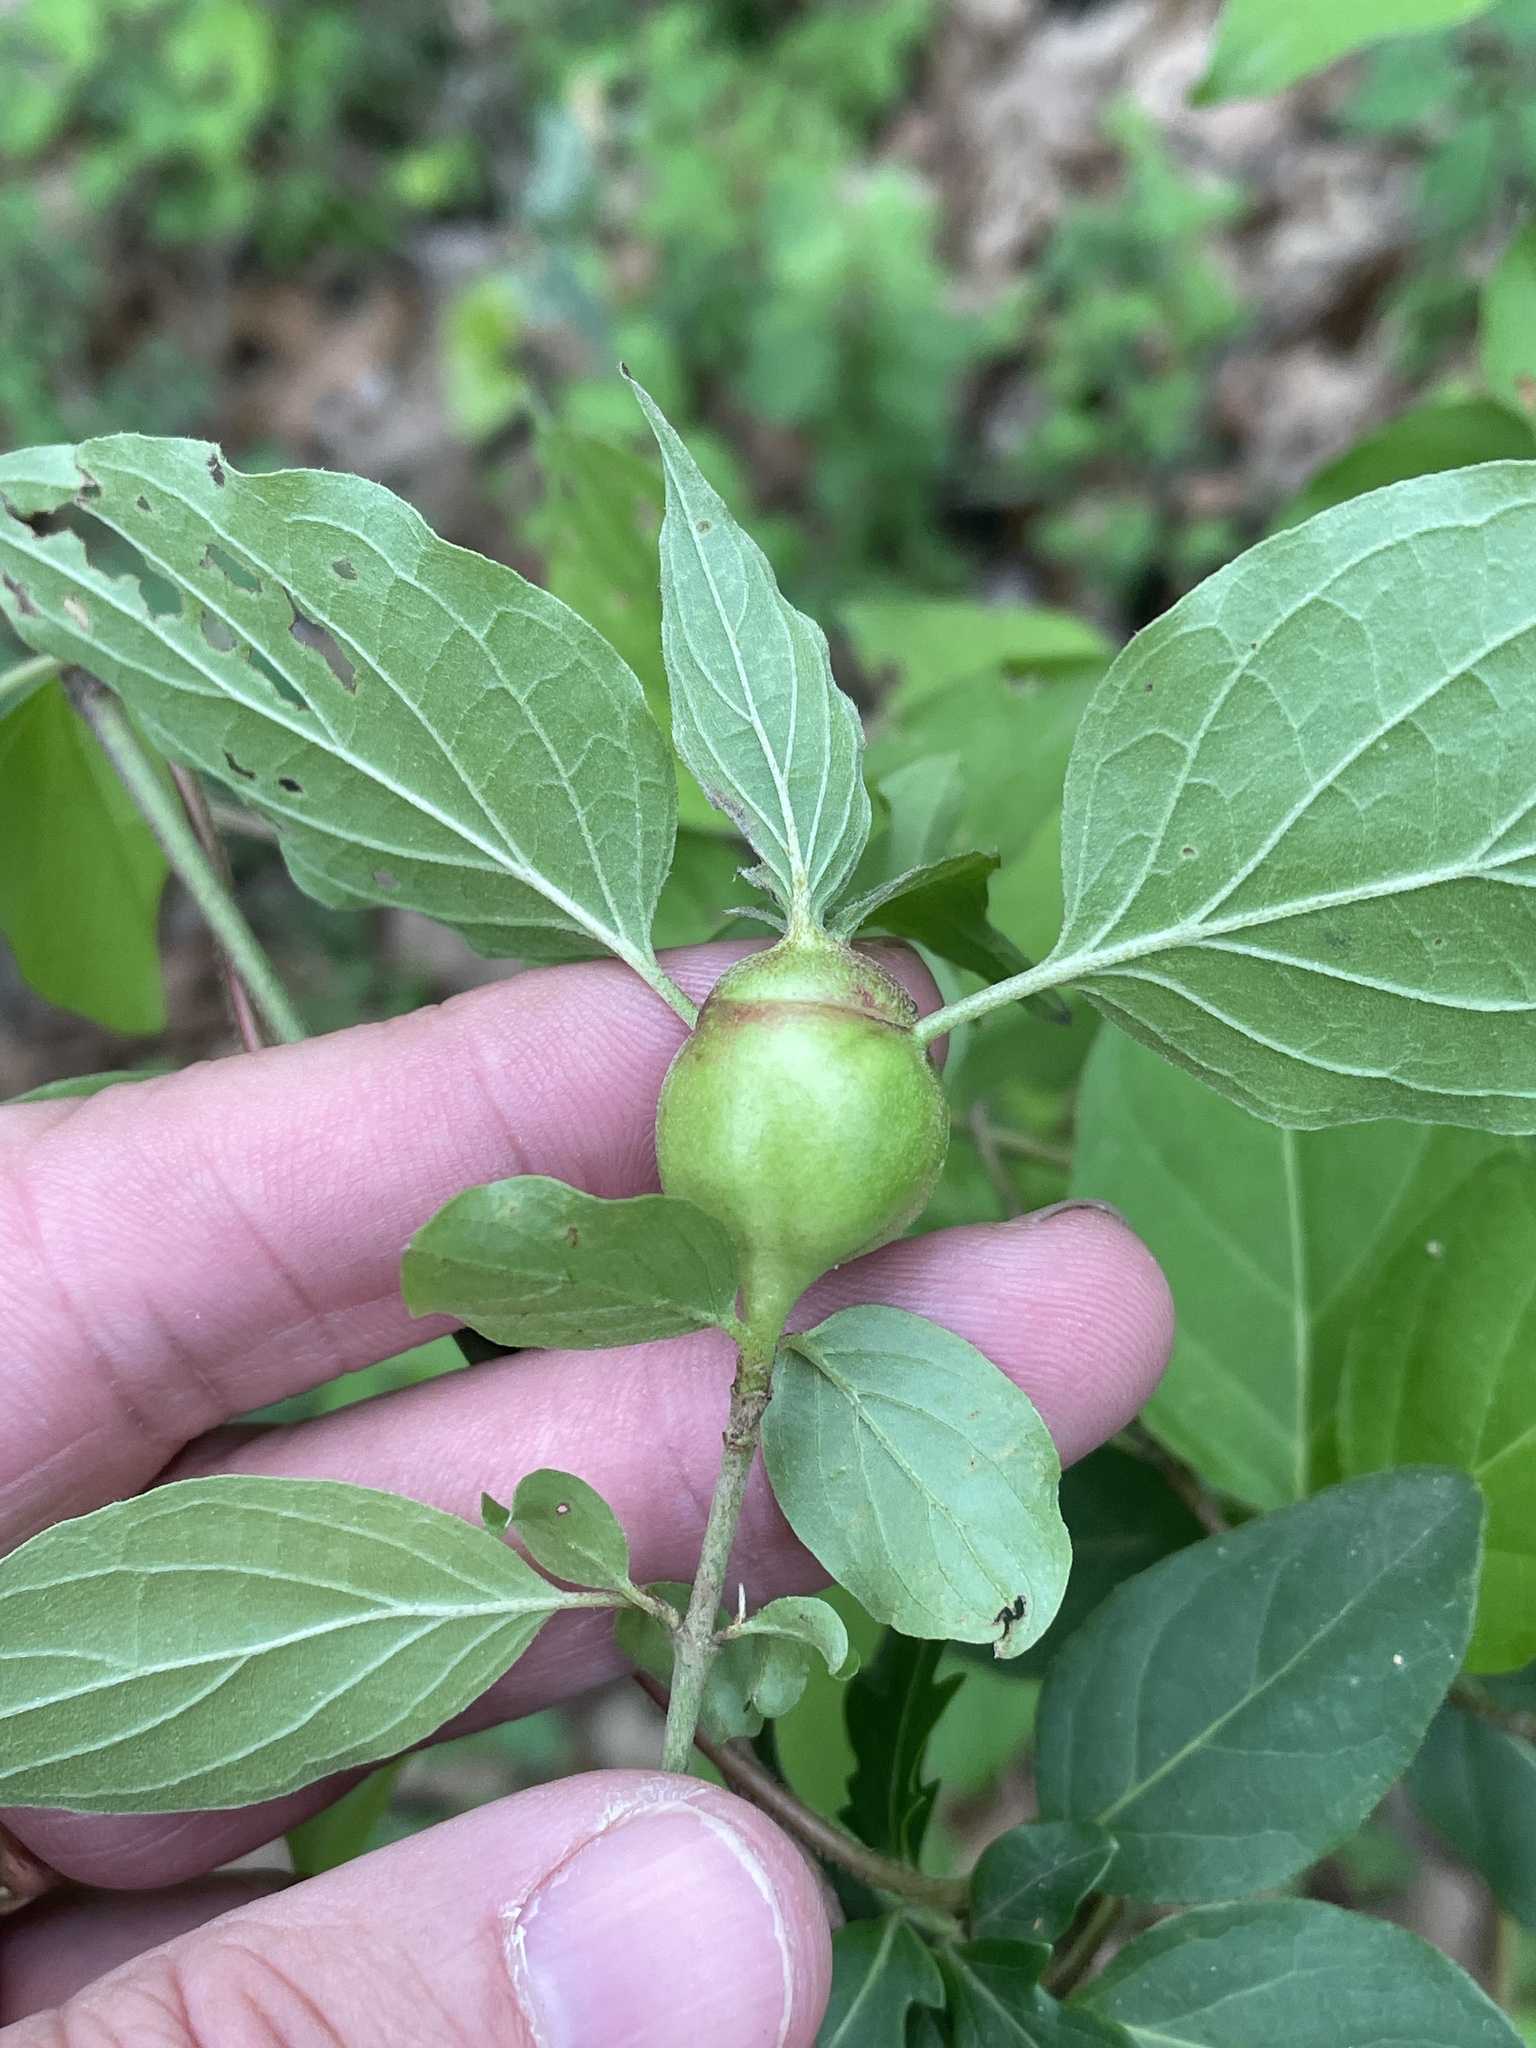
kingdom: Animalia
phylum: Arthropoda
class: Insecta
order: Diptera
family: Cecidomyiidae
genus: Resseliella
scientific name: Resseliella clavula
